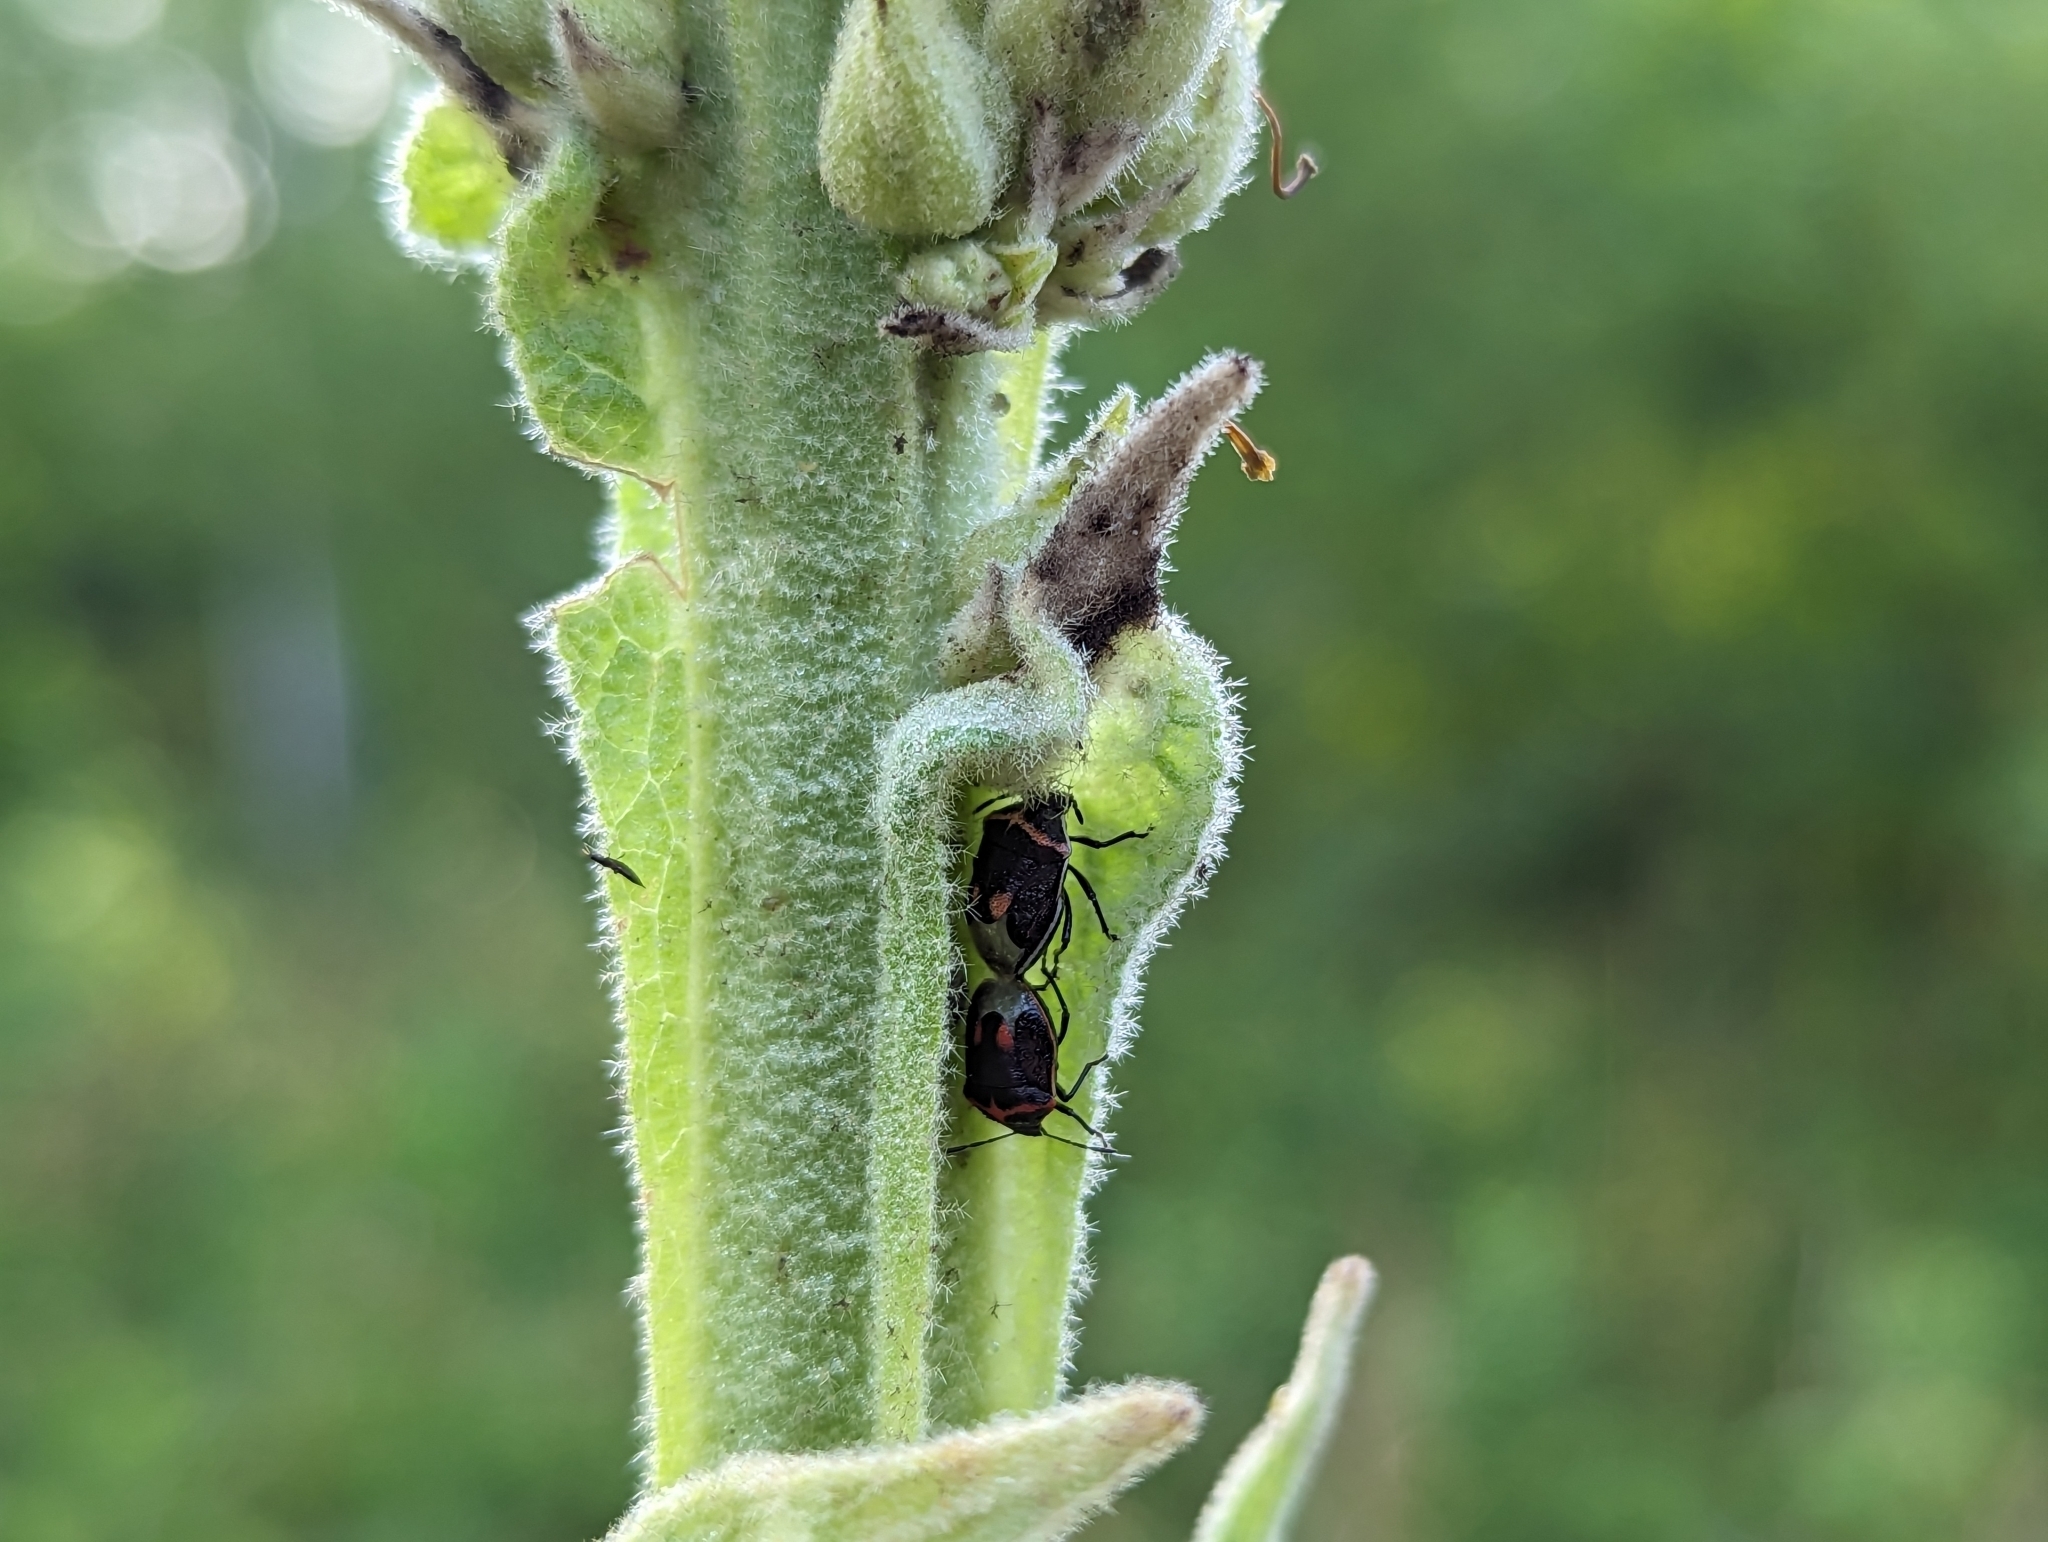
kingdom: Animalia
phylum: Arthropoda
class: Insecta
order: Hemiptera
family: Pentatomidae
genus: Cosmopepla
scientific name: Cosmopepla lintneriana
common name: Twice-stabbed stink bug
